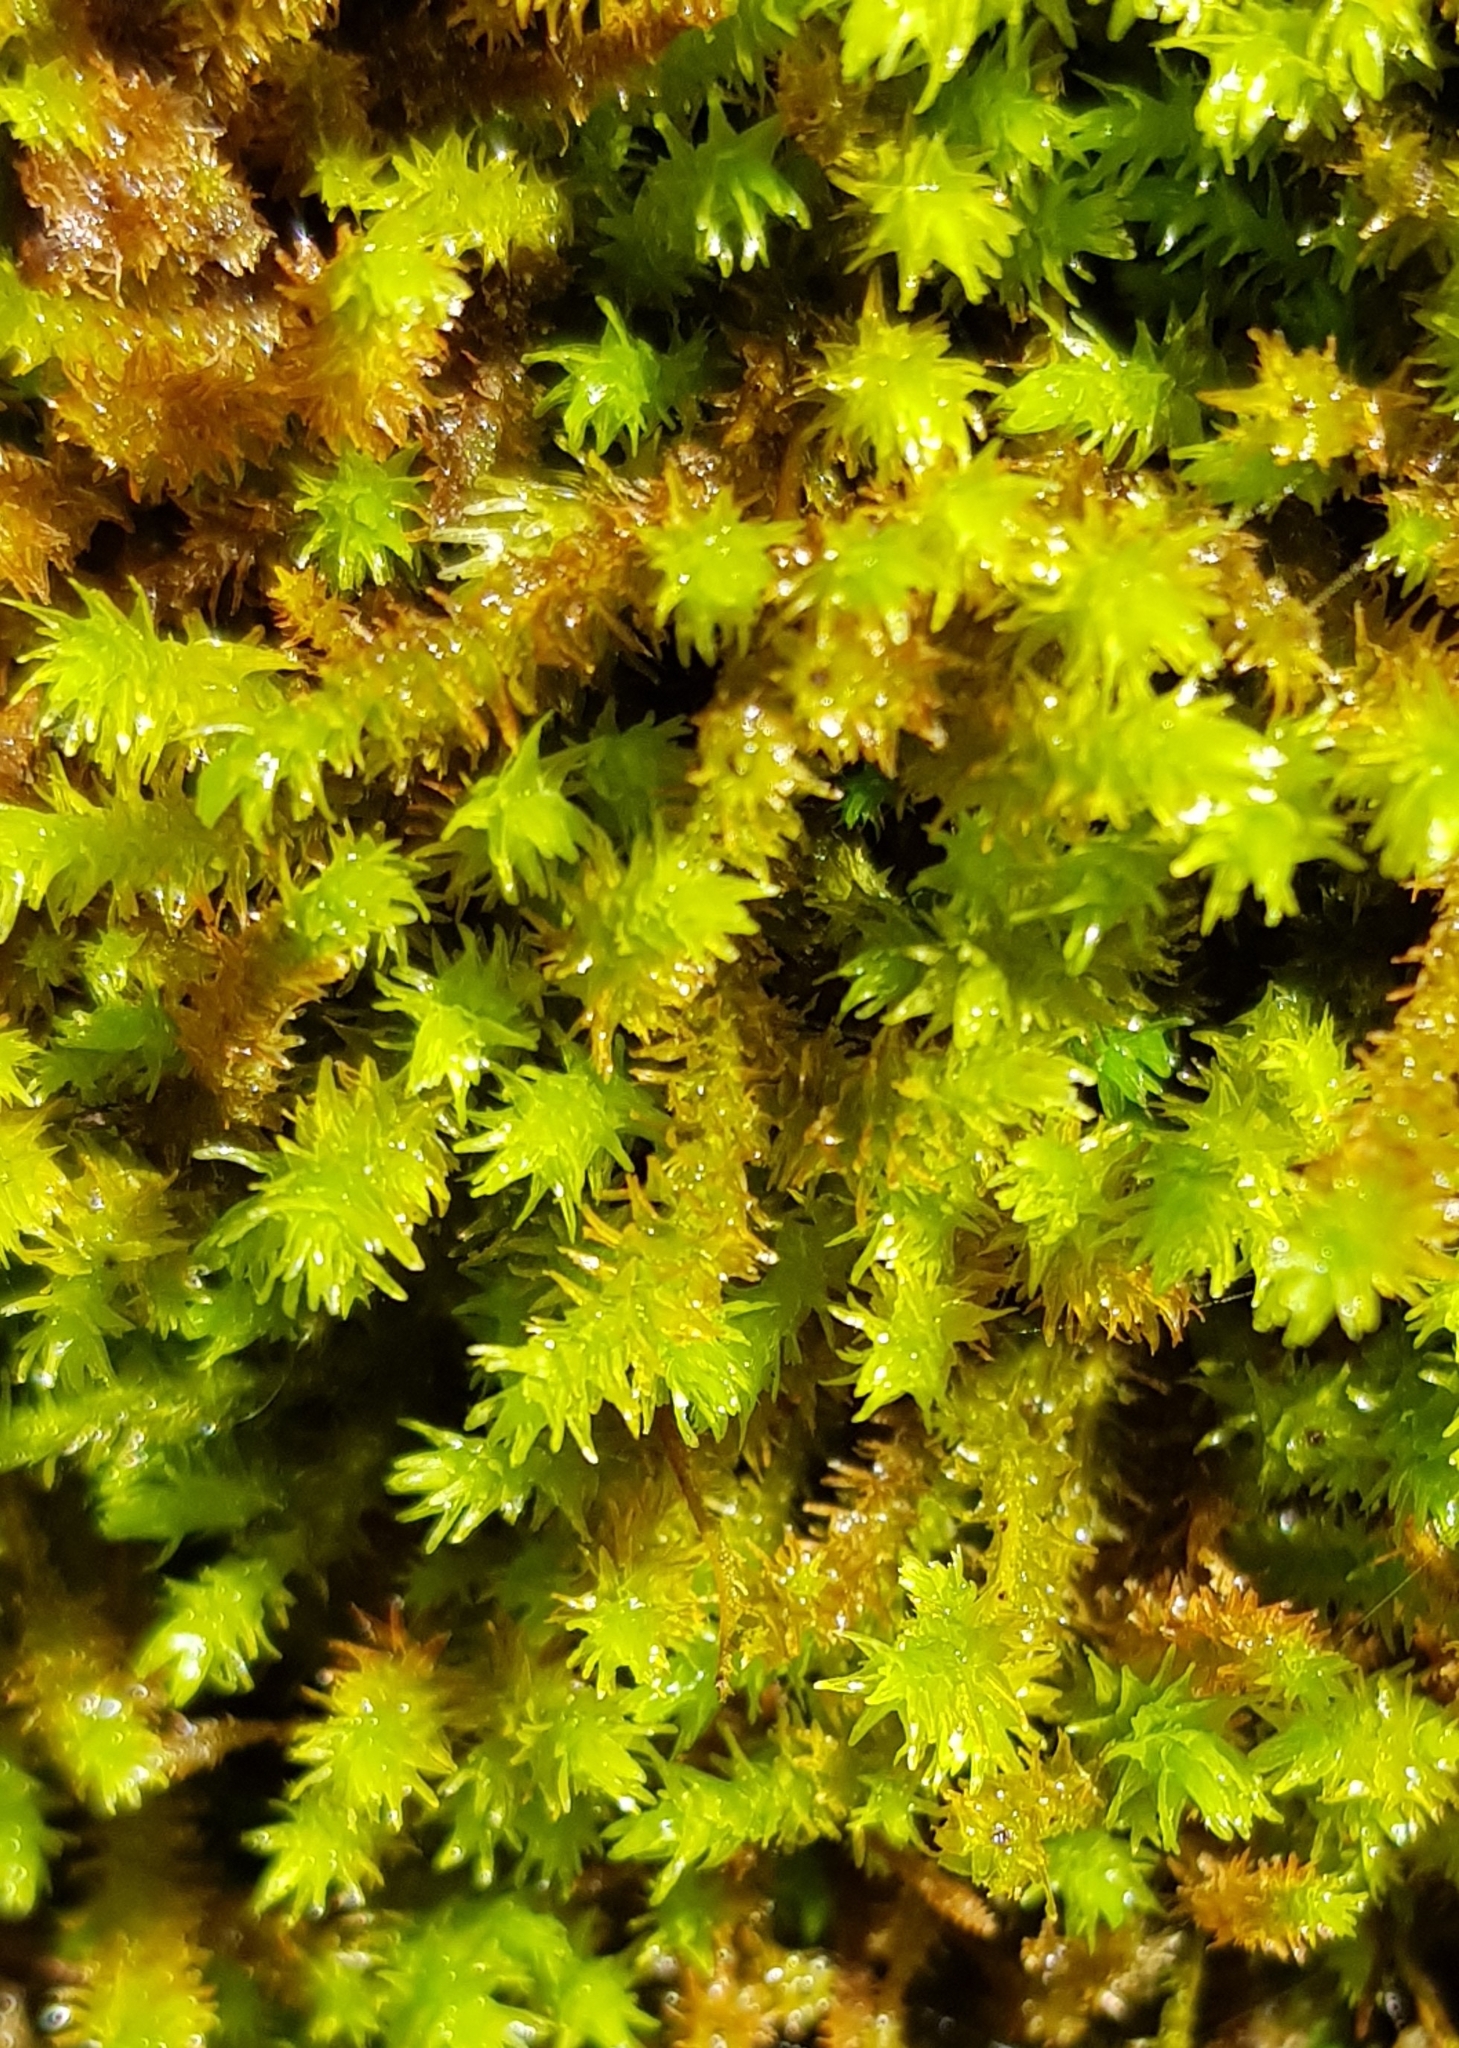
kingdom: Plantae
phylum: Bryophyta
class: Bryopsida
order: Hypnales
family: Anomodontaceae
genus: Anomodon
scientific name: Anomodon viticulosus
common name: Tall anomodon
